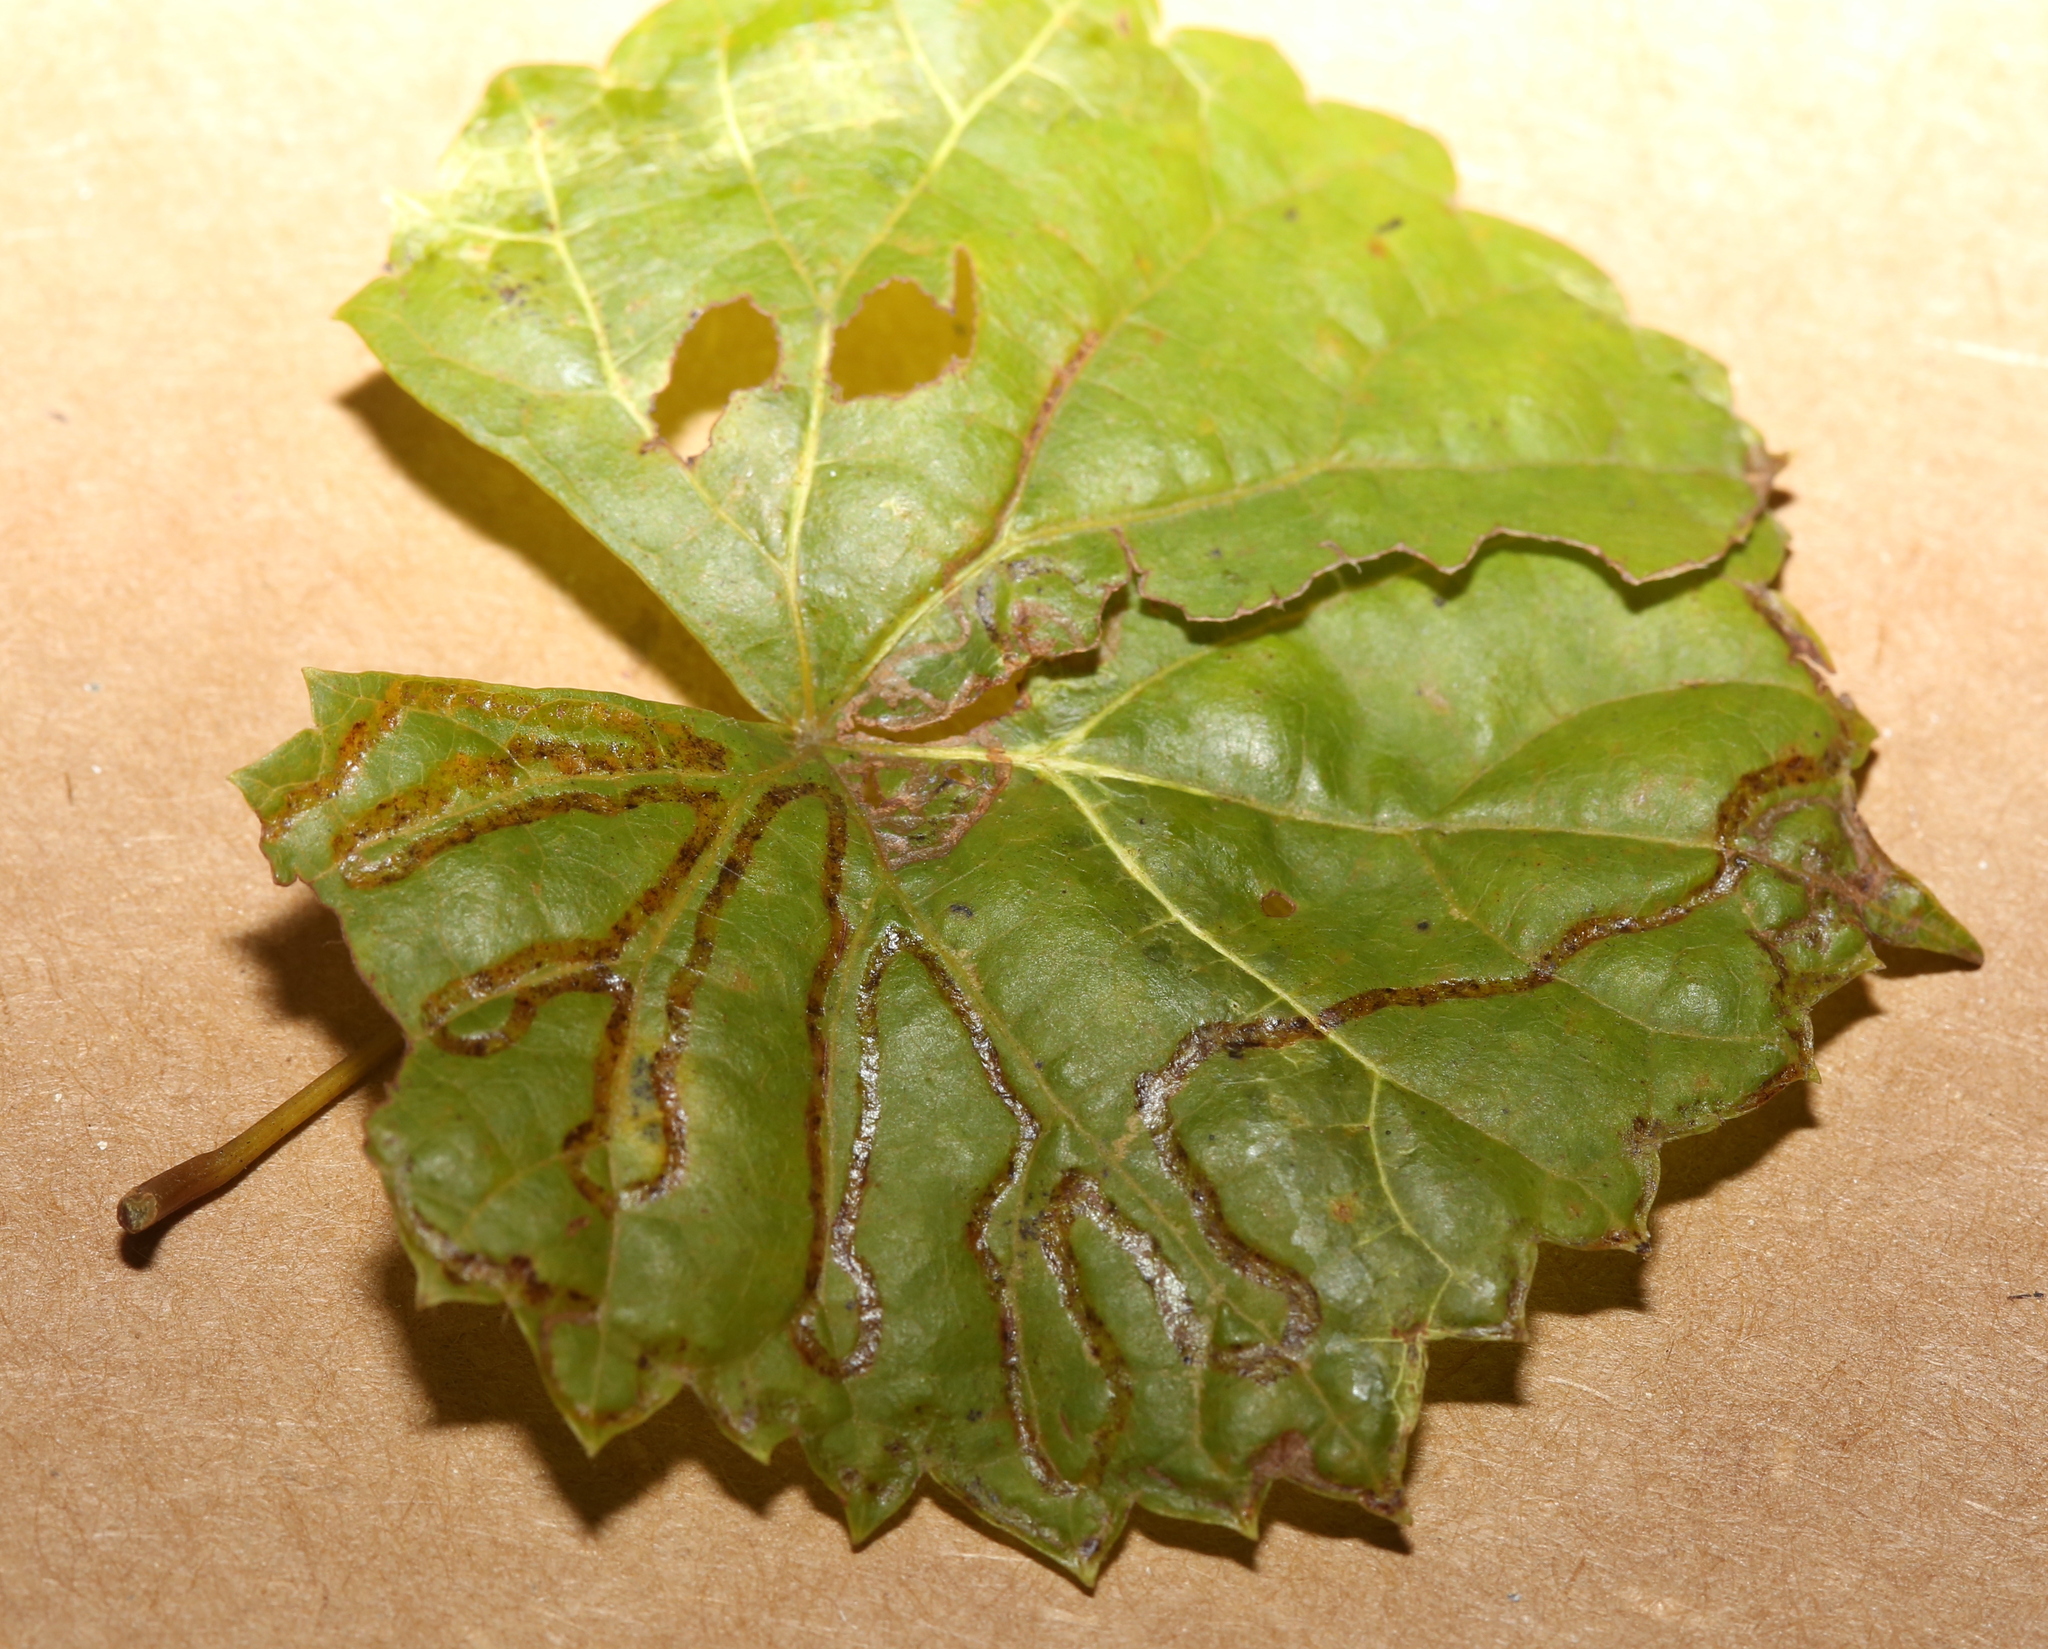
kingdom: Animalia
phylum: Arthropoda
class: Insecta
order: Lepidoptera
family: Gracillariidae
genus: Phyllocnistis
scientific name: Phyllocnistis vitegenella
